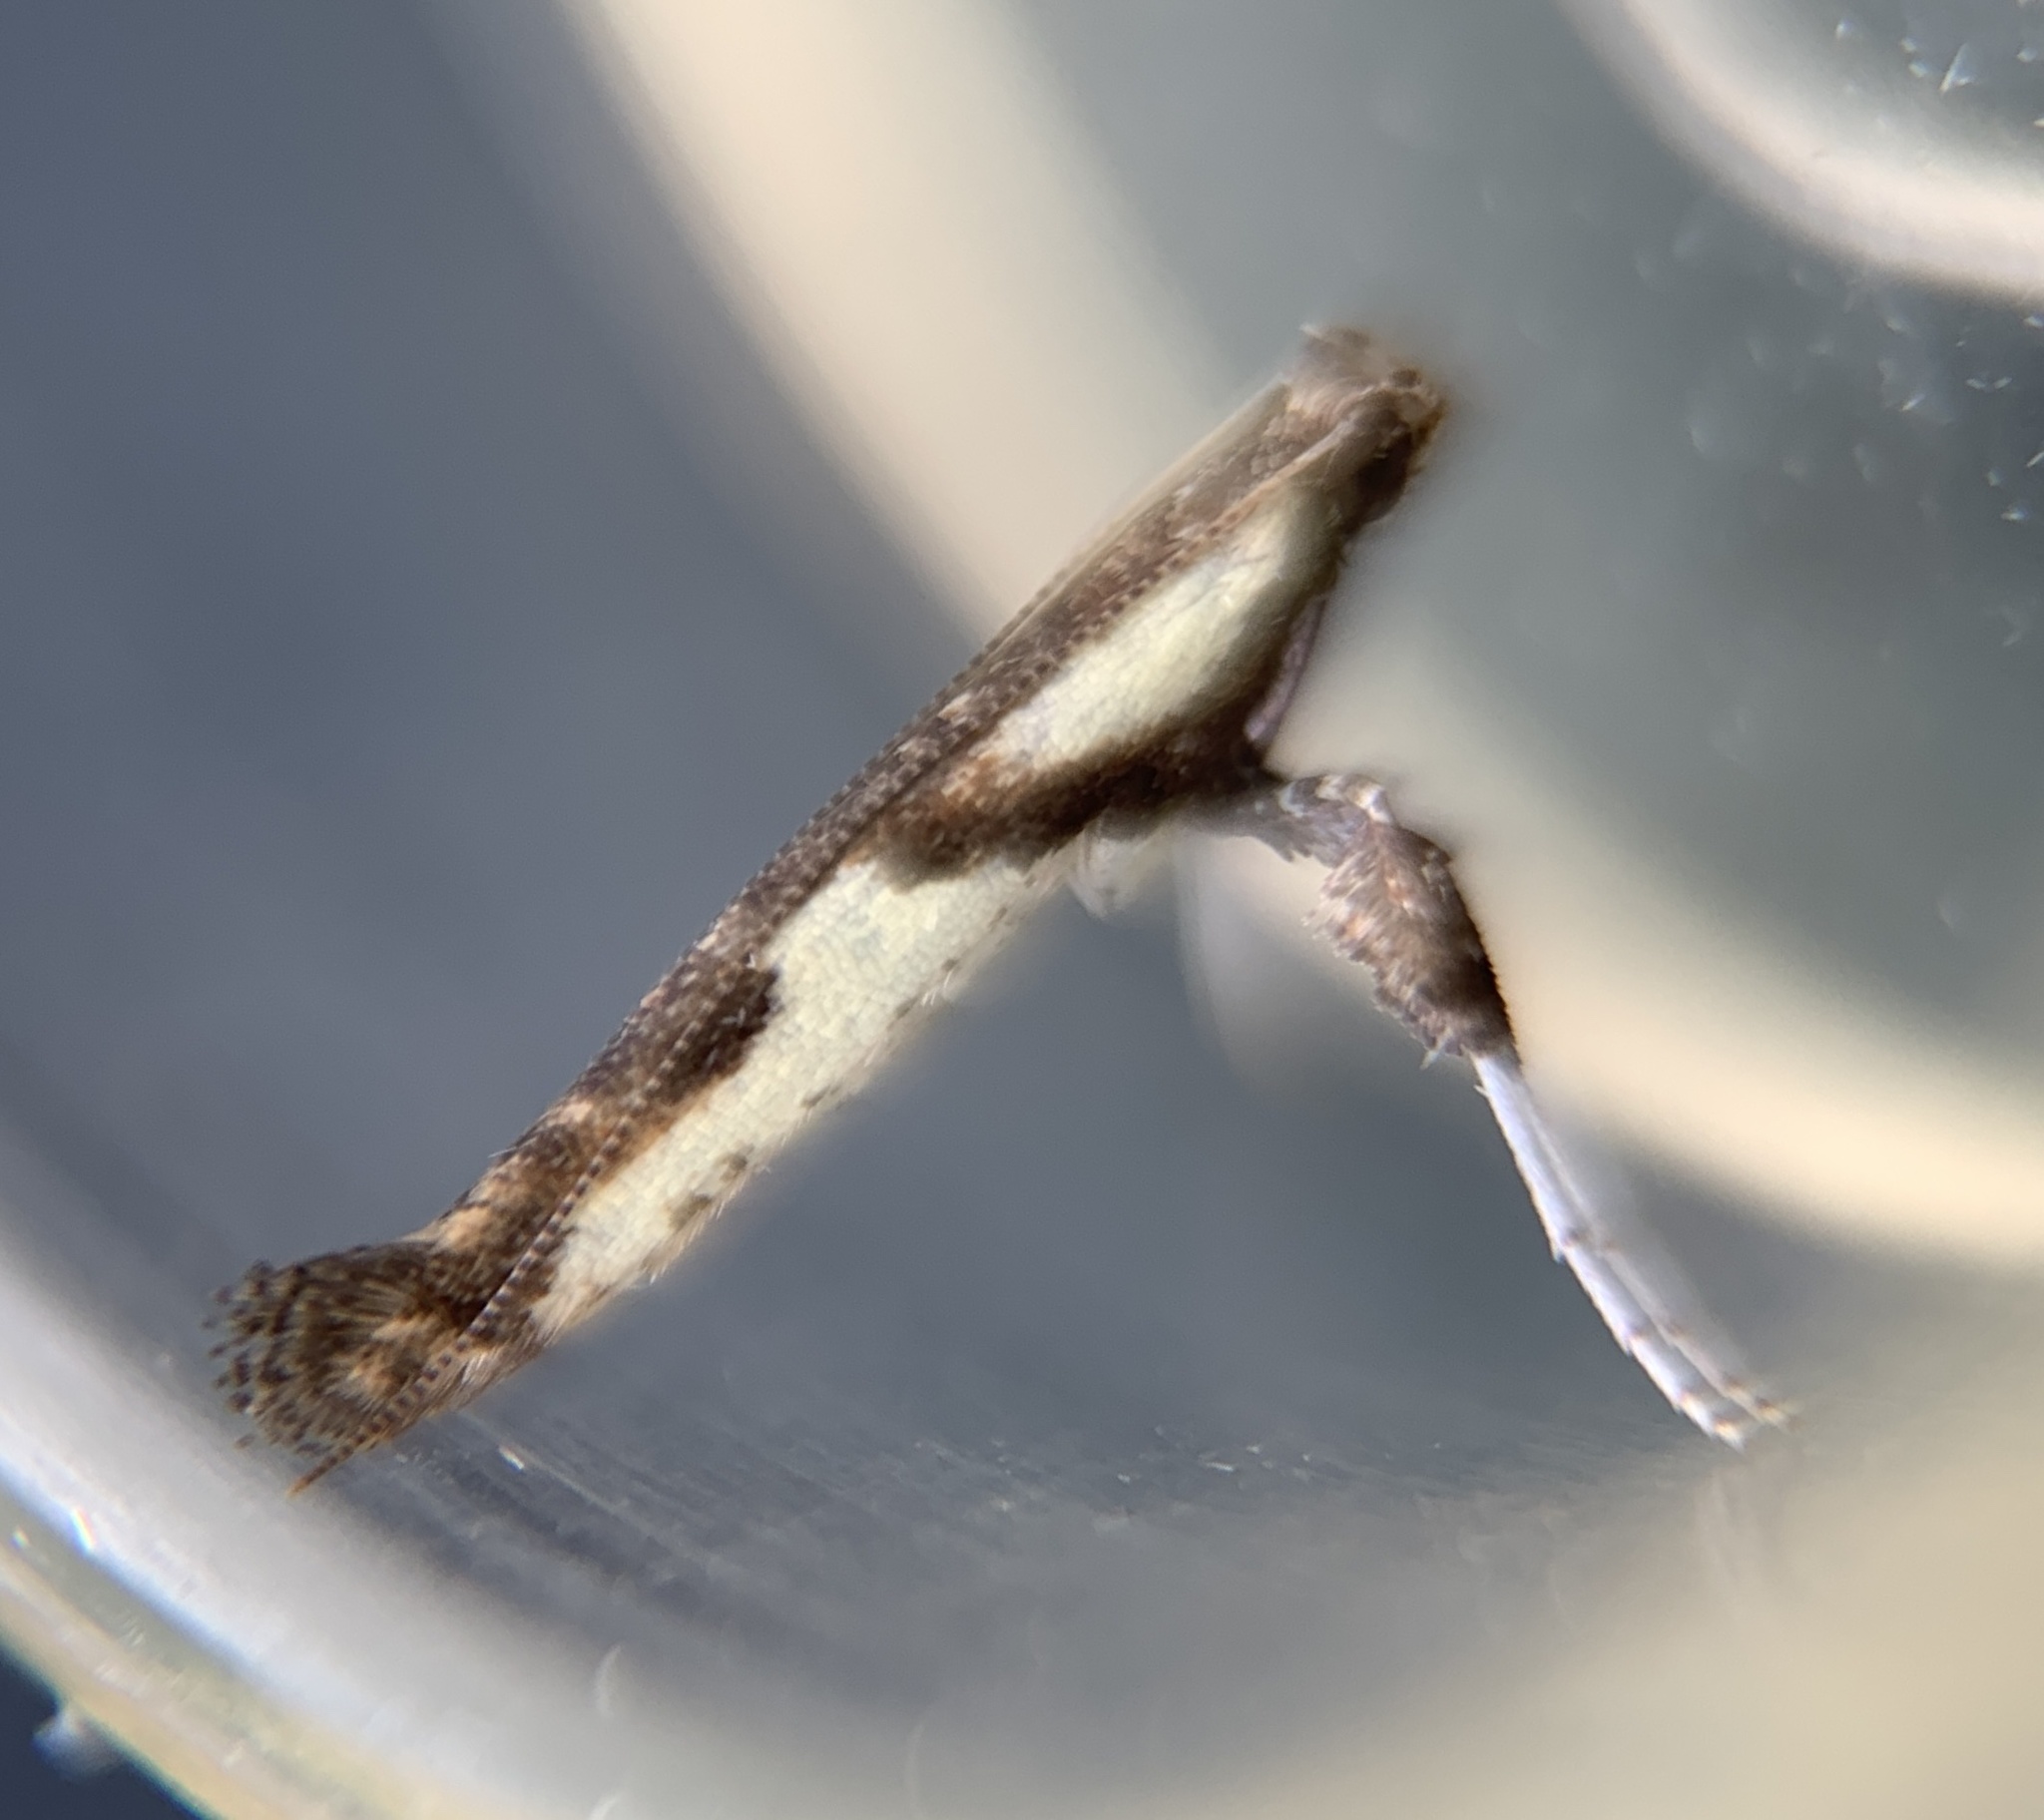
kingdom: Animalia
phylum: Arthropoda
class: Insecta
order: Lepidoptera
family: Gracillariidae
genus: Caloptilia
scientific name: Caloptilia blandella
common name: Walnut caloptilia moth
